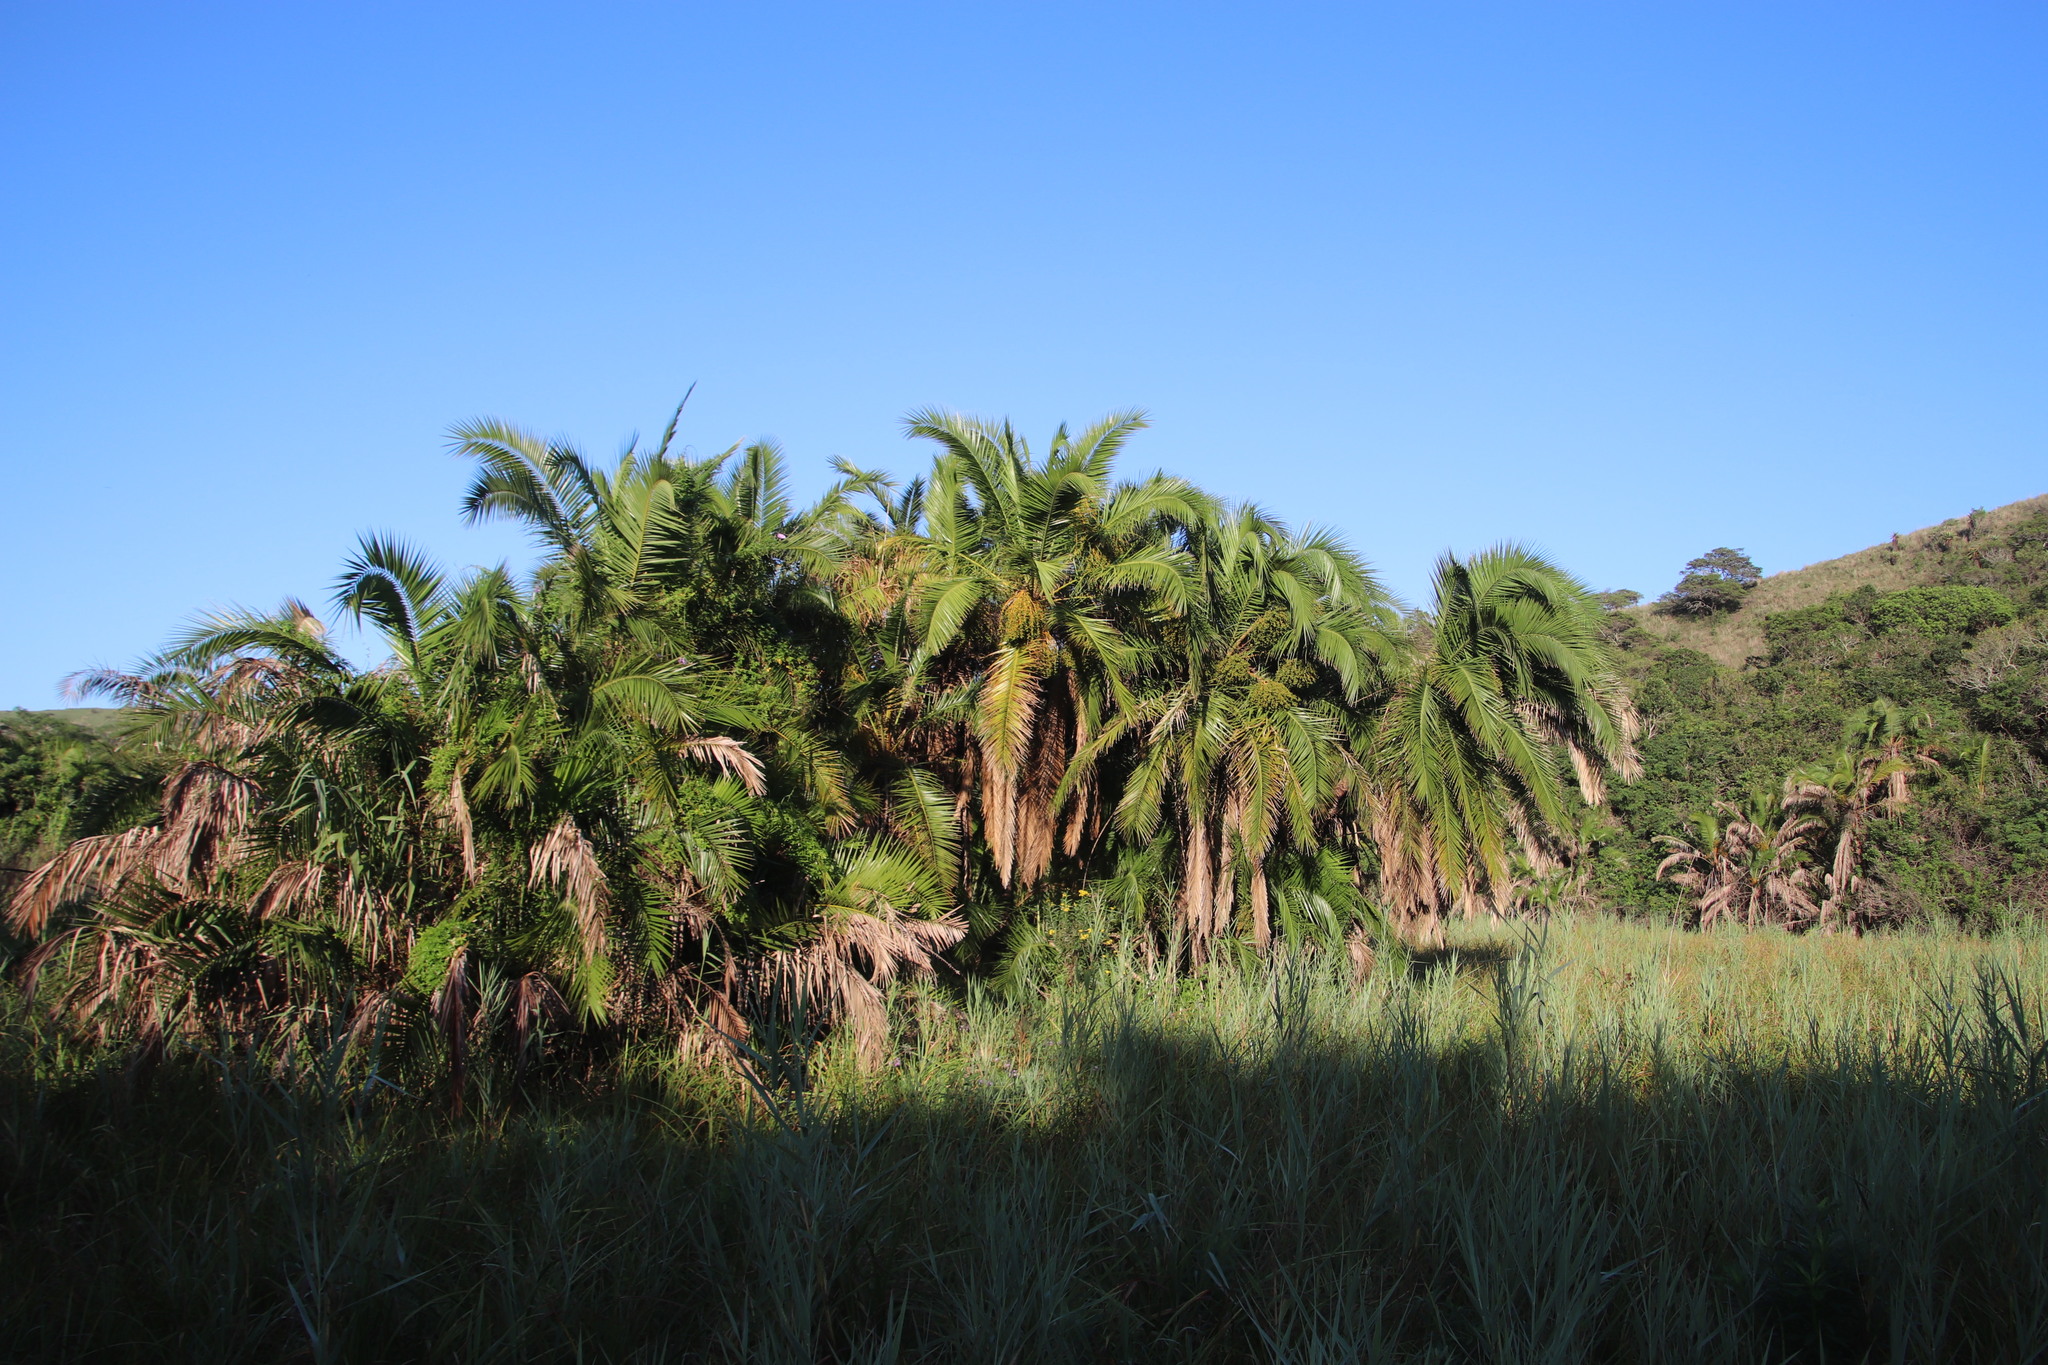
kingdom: Plantae
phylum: Tracheophyta
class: Liliopsida
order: Arecales
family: Arecaceae
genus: Phoenix
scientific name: Phoenix reclinata
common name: Senegal date palm
